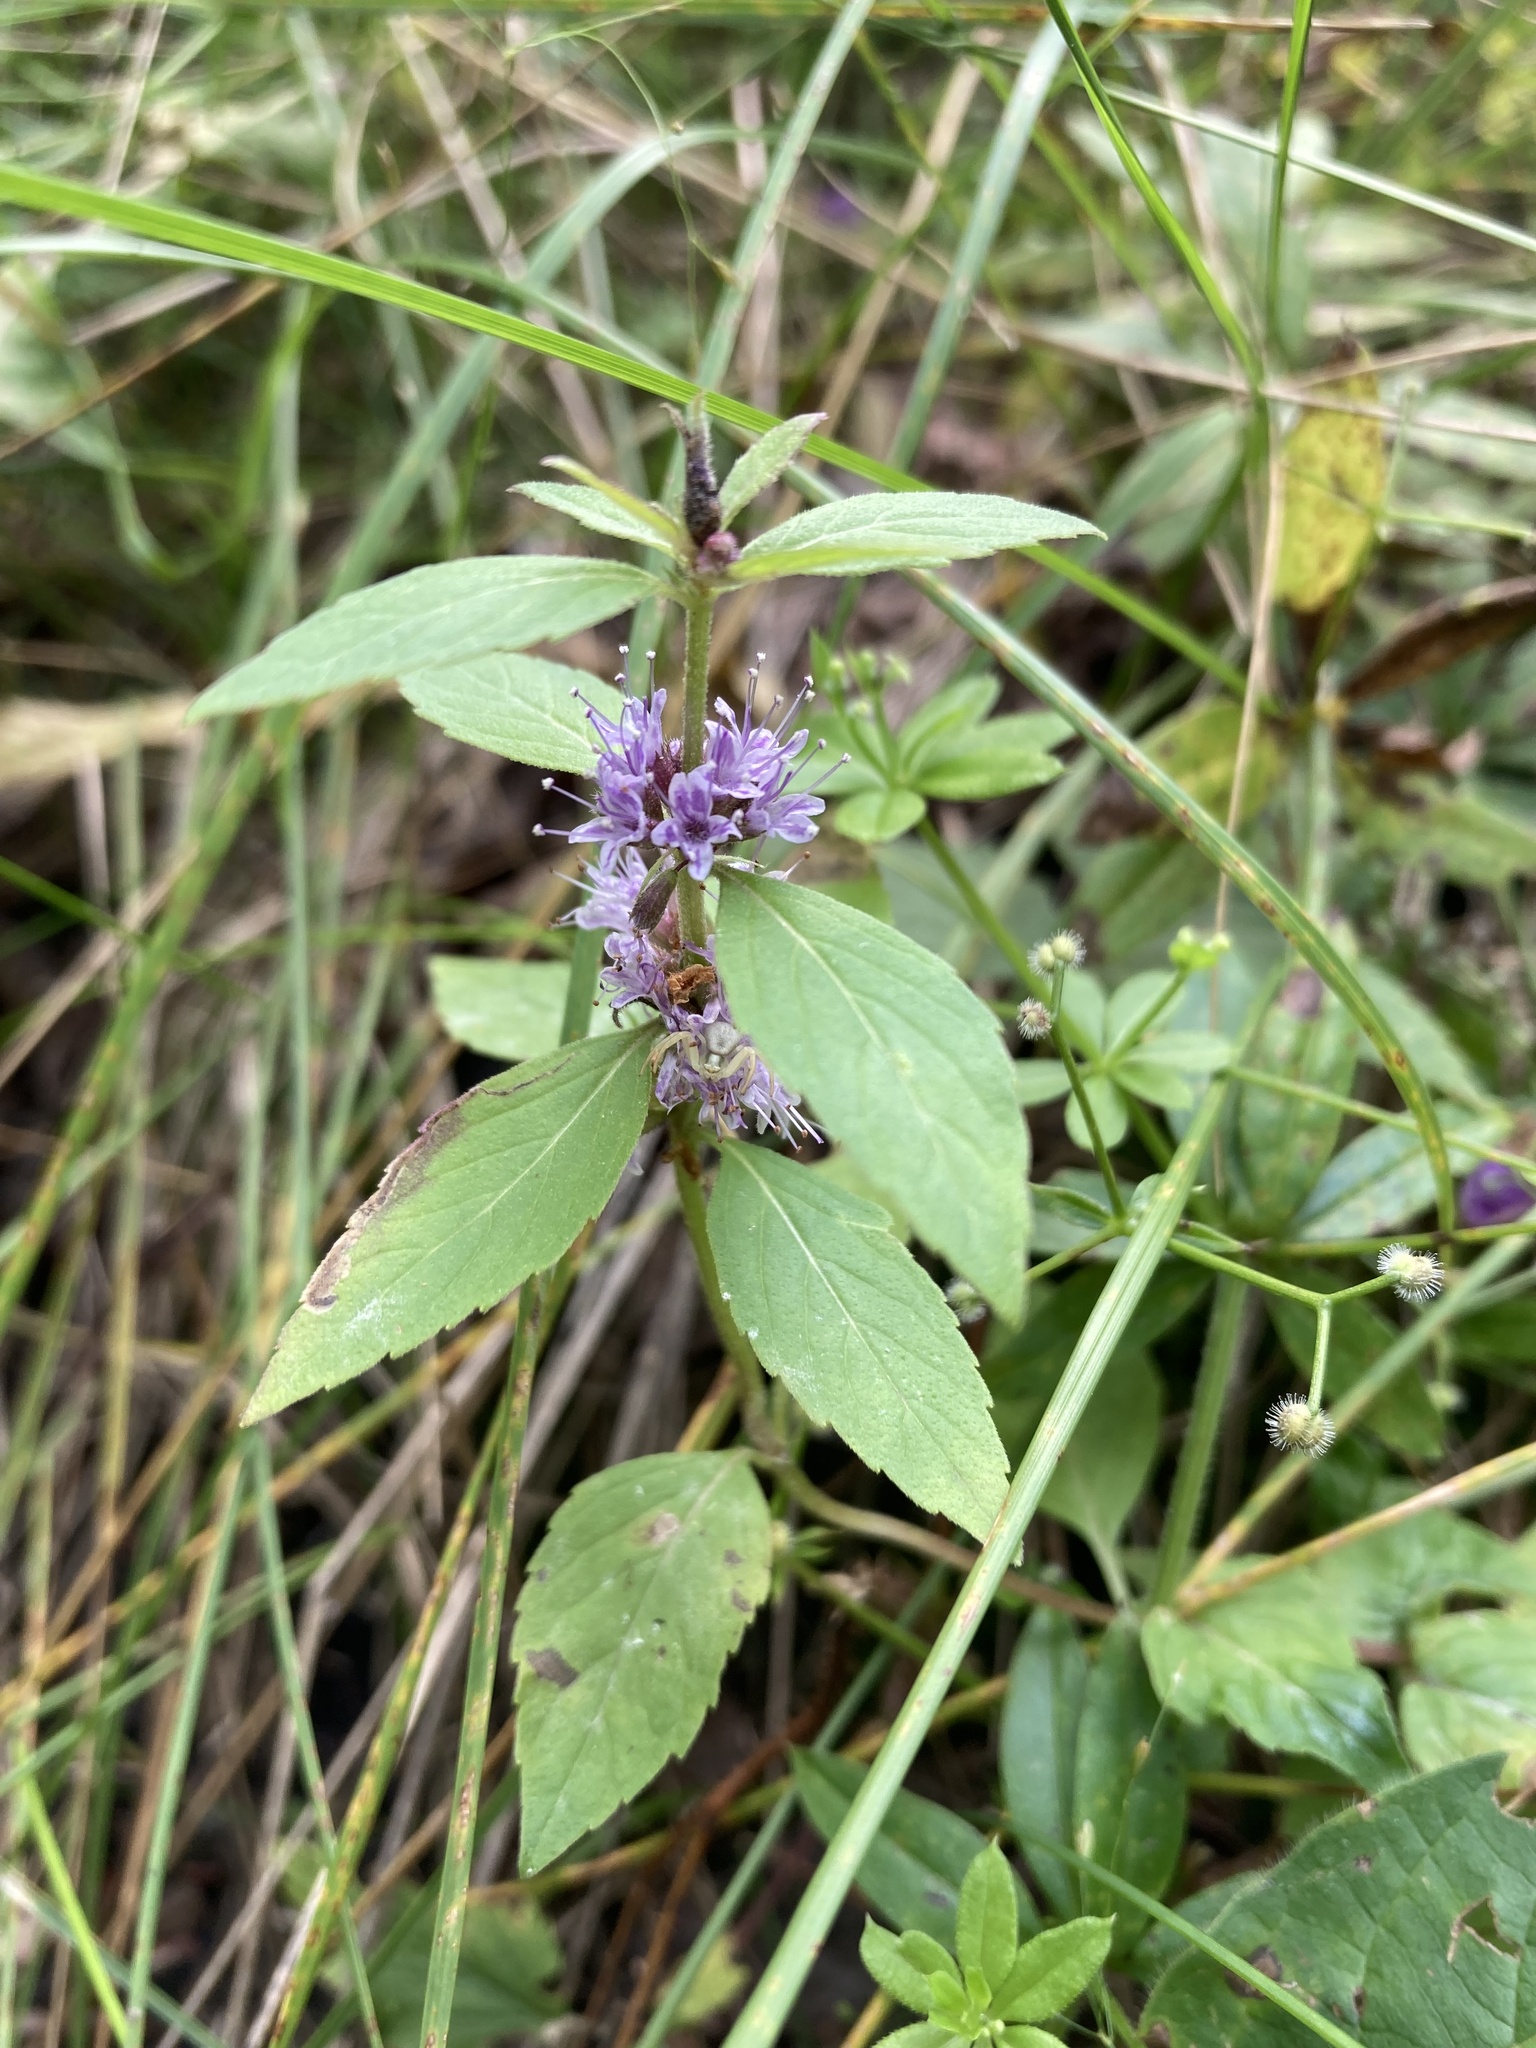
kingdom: Plantae
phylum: Tracheophyta
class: Magnoliopsida
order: Lamiales
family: Lamiaceae
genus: Mentha
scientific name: Mentha canadensis
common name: American corn mint
